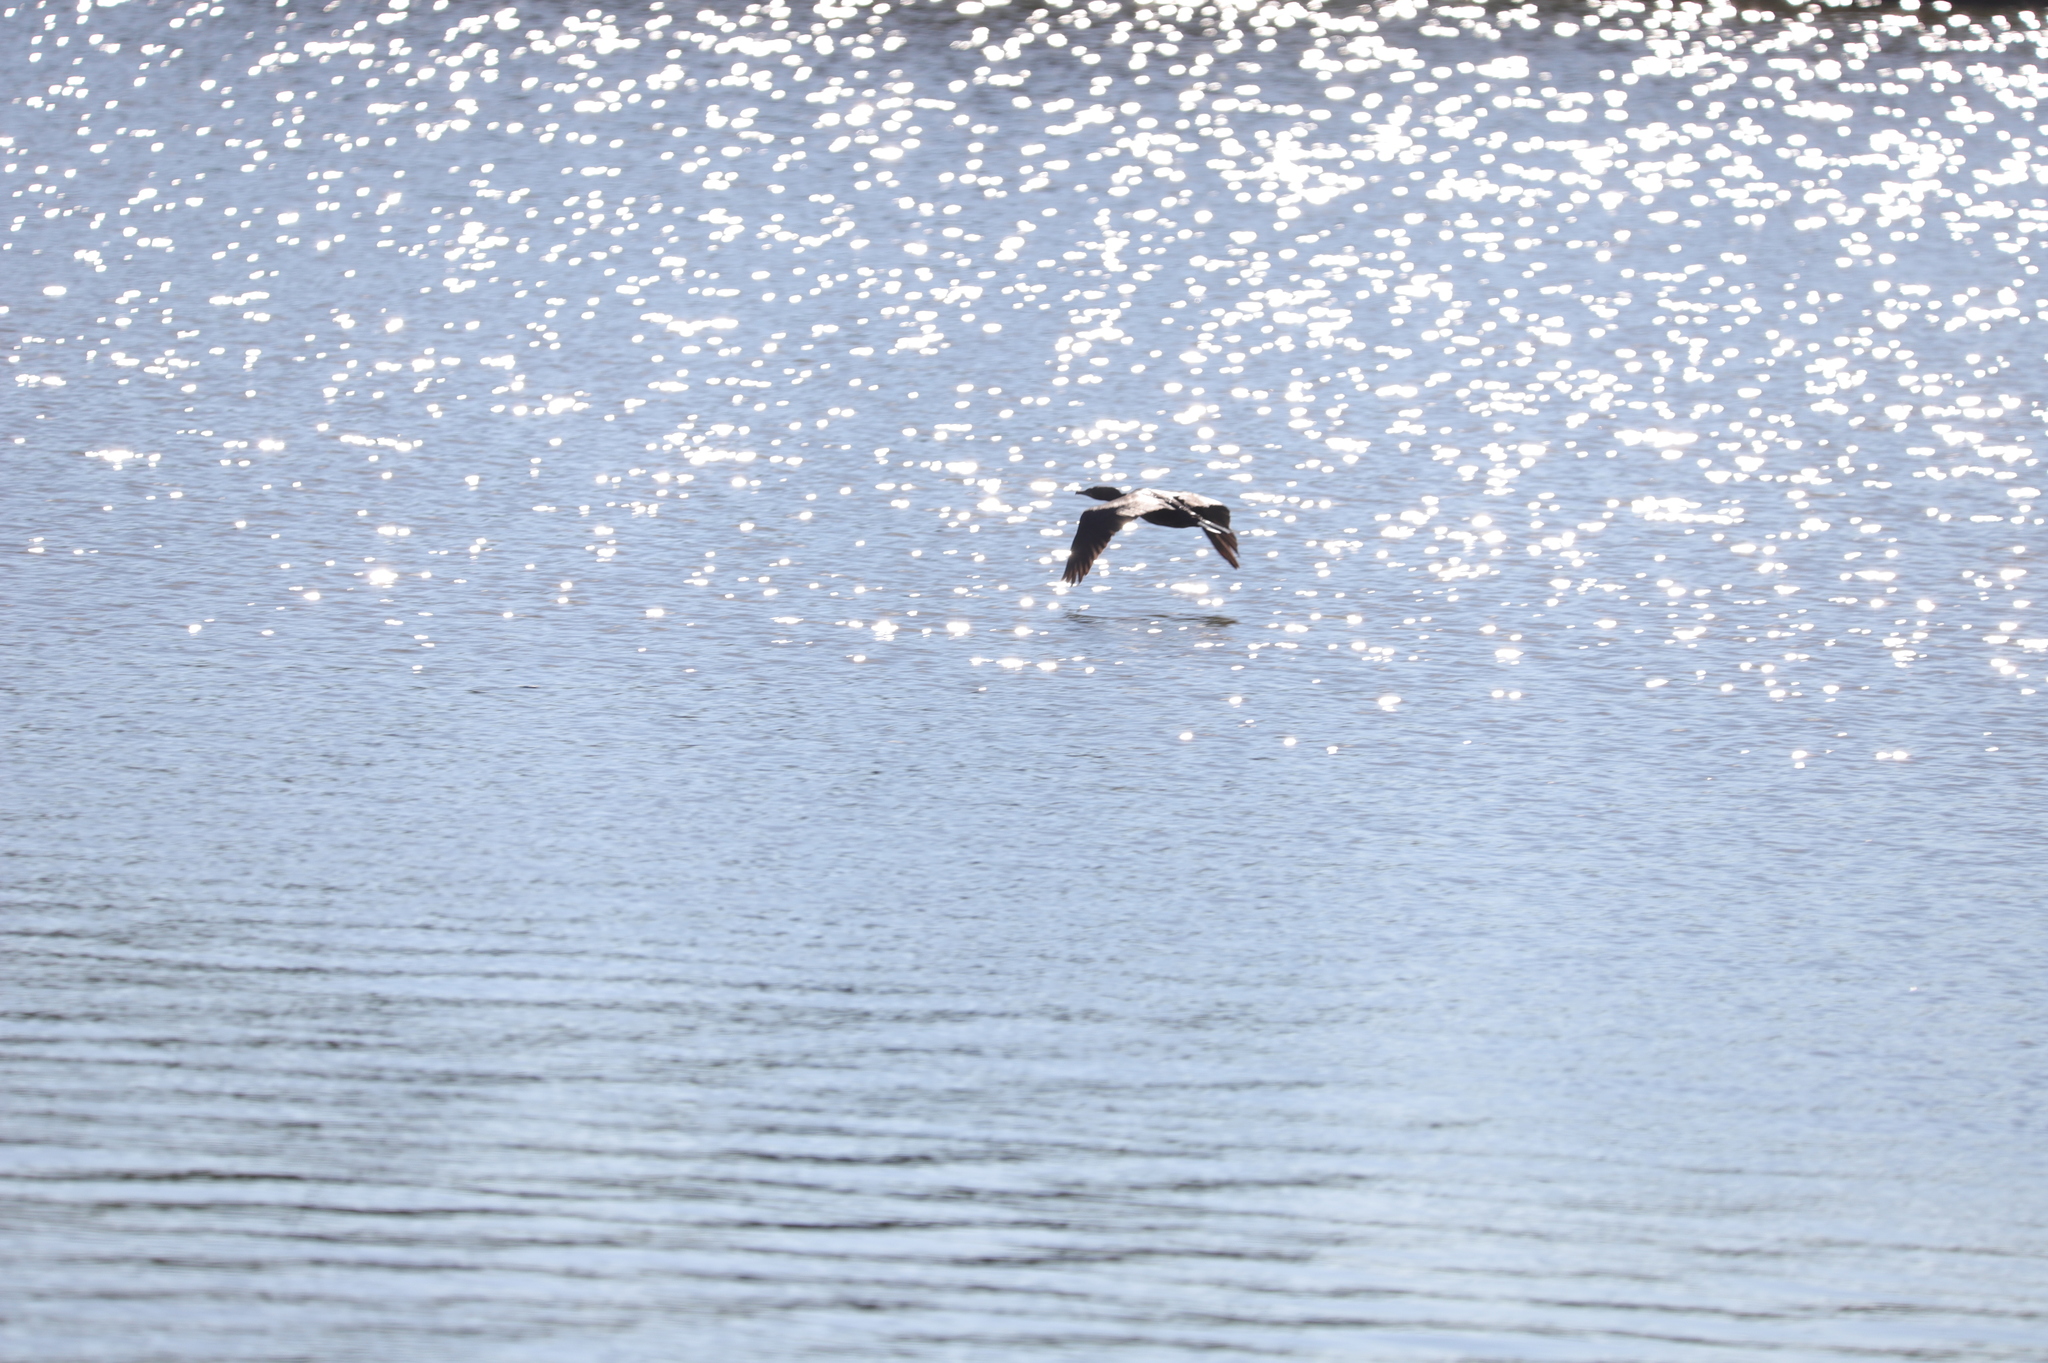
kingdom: Animalia
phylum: Chordata
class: Aves
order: Suliformes
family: Phalacrocoracidae
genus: Phalacrocorax
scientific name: Phalacrocorax auritus
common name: Double-crested cormorant
